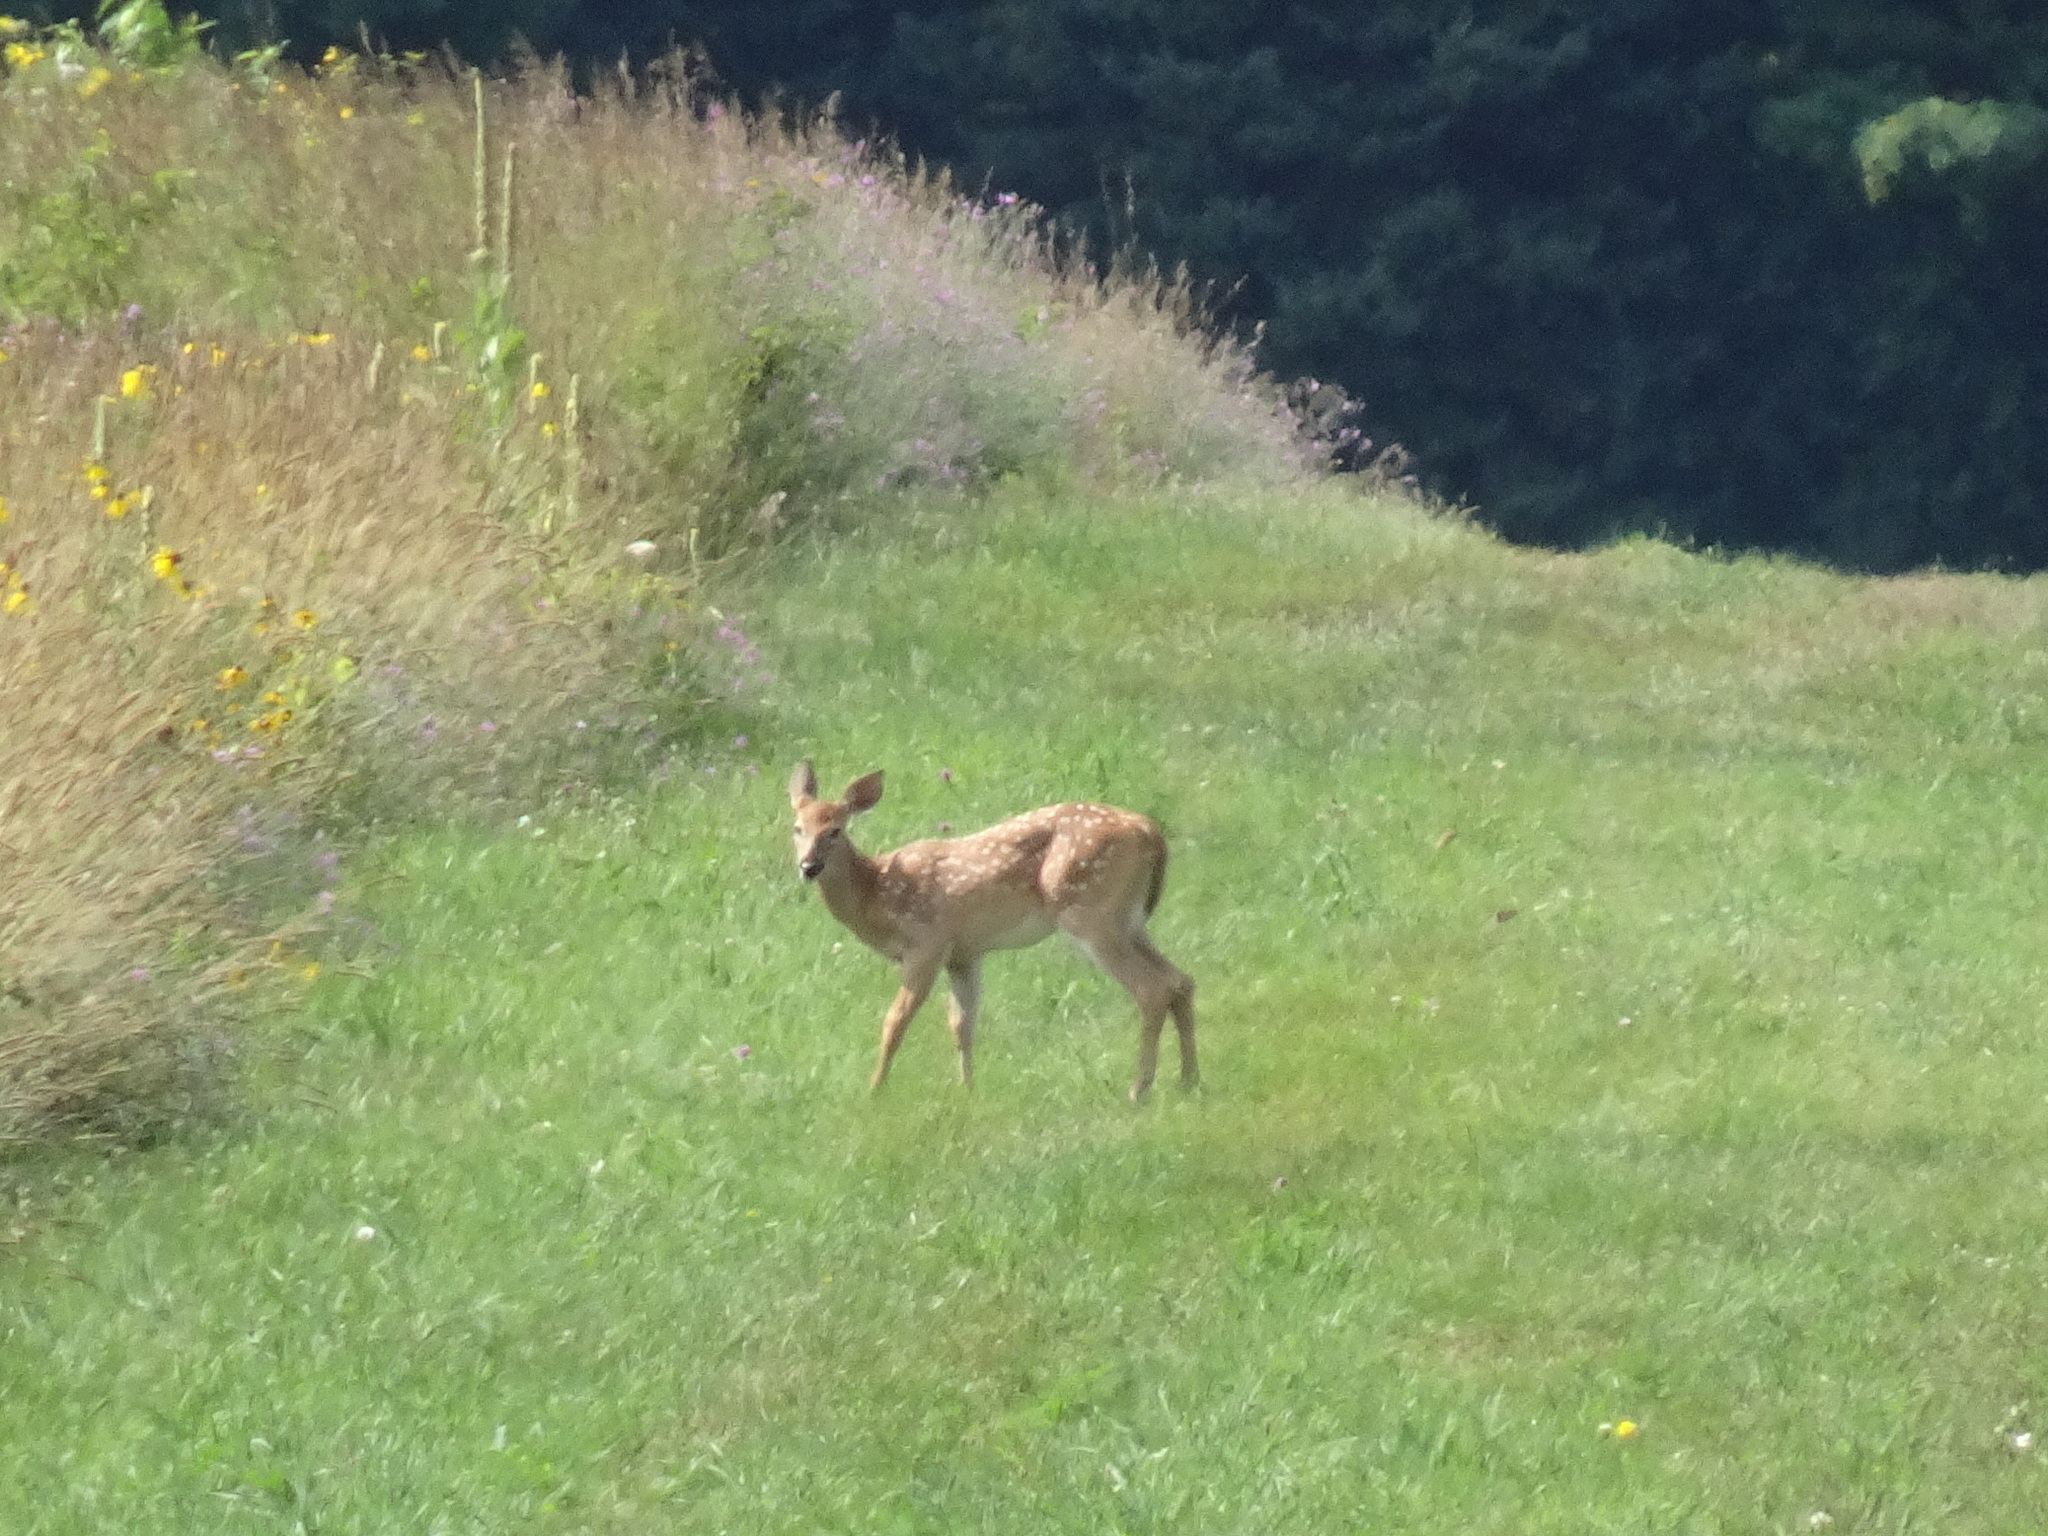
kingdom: Animalia
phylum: Chordata
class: Mammalia
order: Artiodactyla
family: Cervidae
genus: Odocoileus
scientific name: Odocoileus virginianus
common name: White-tailed deer
